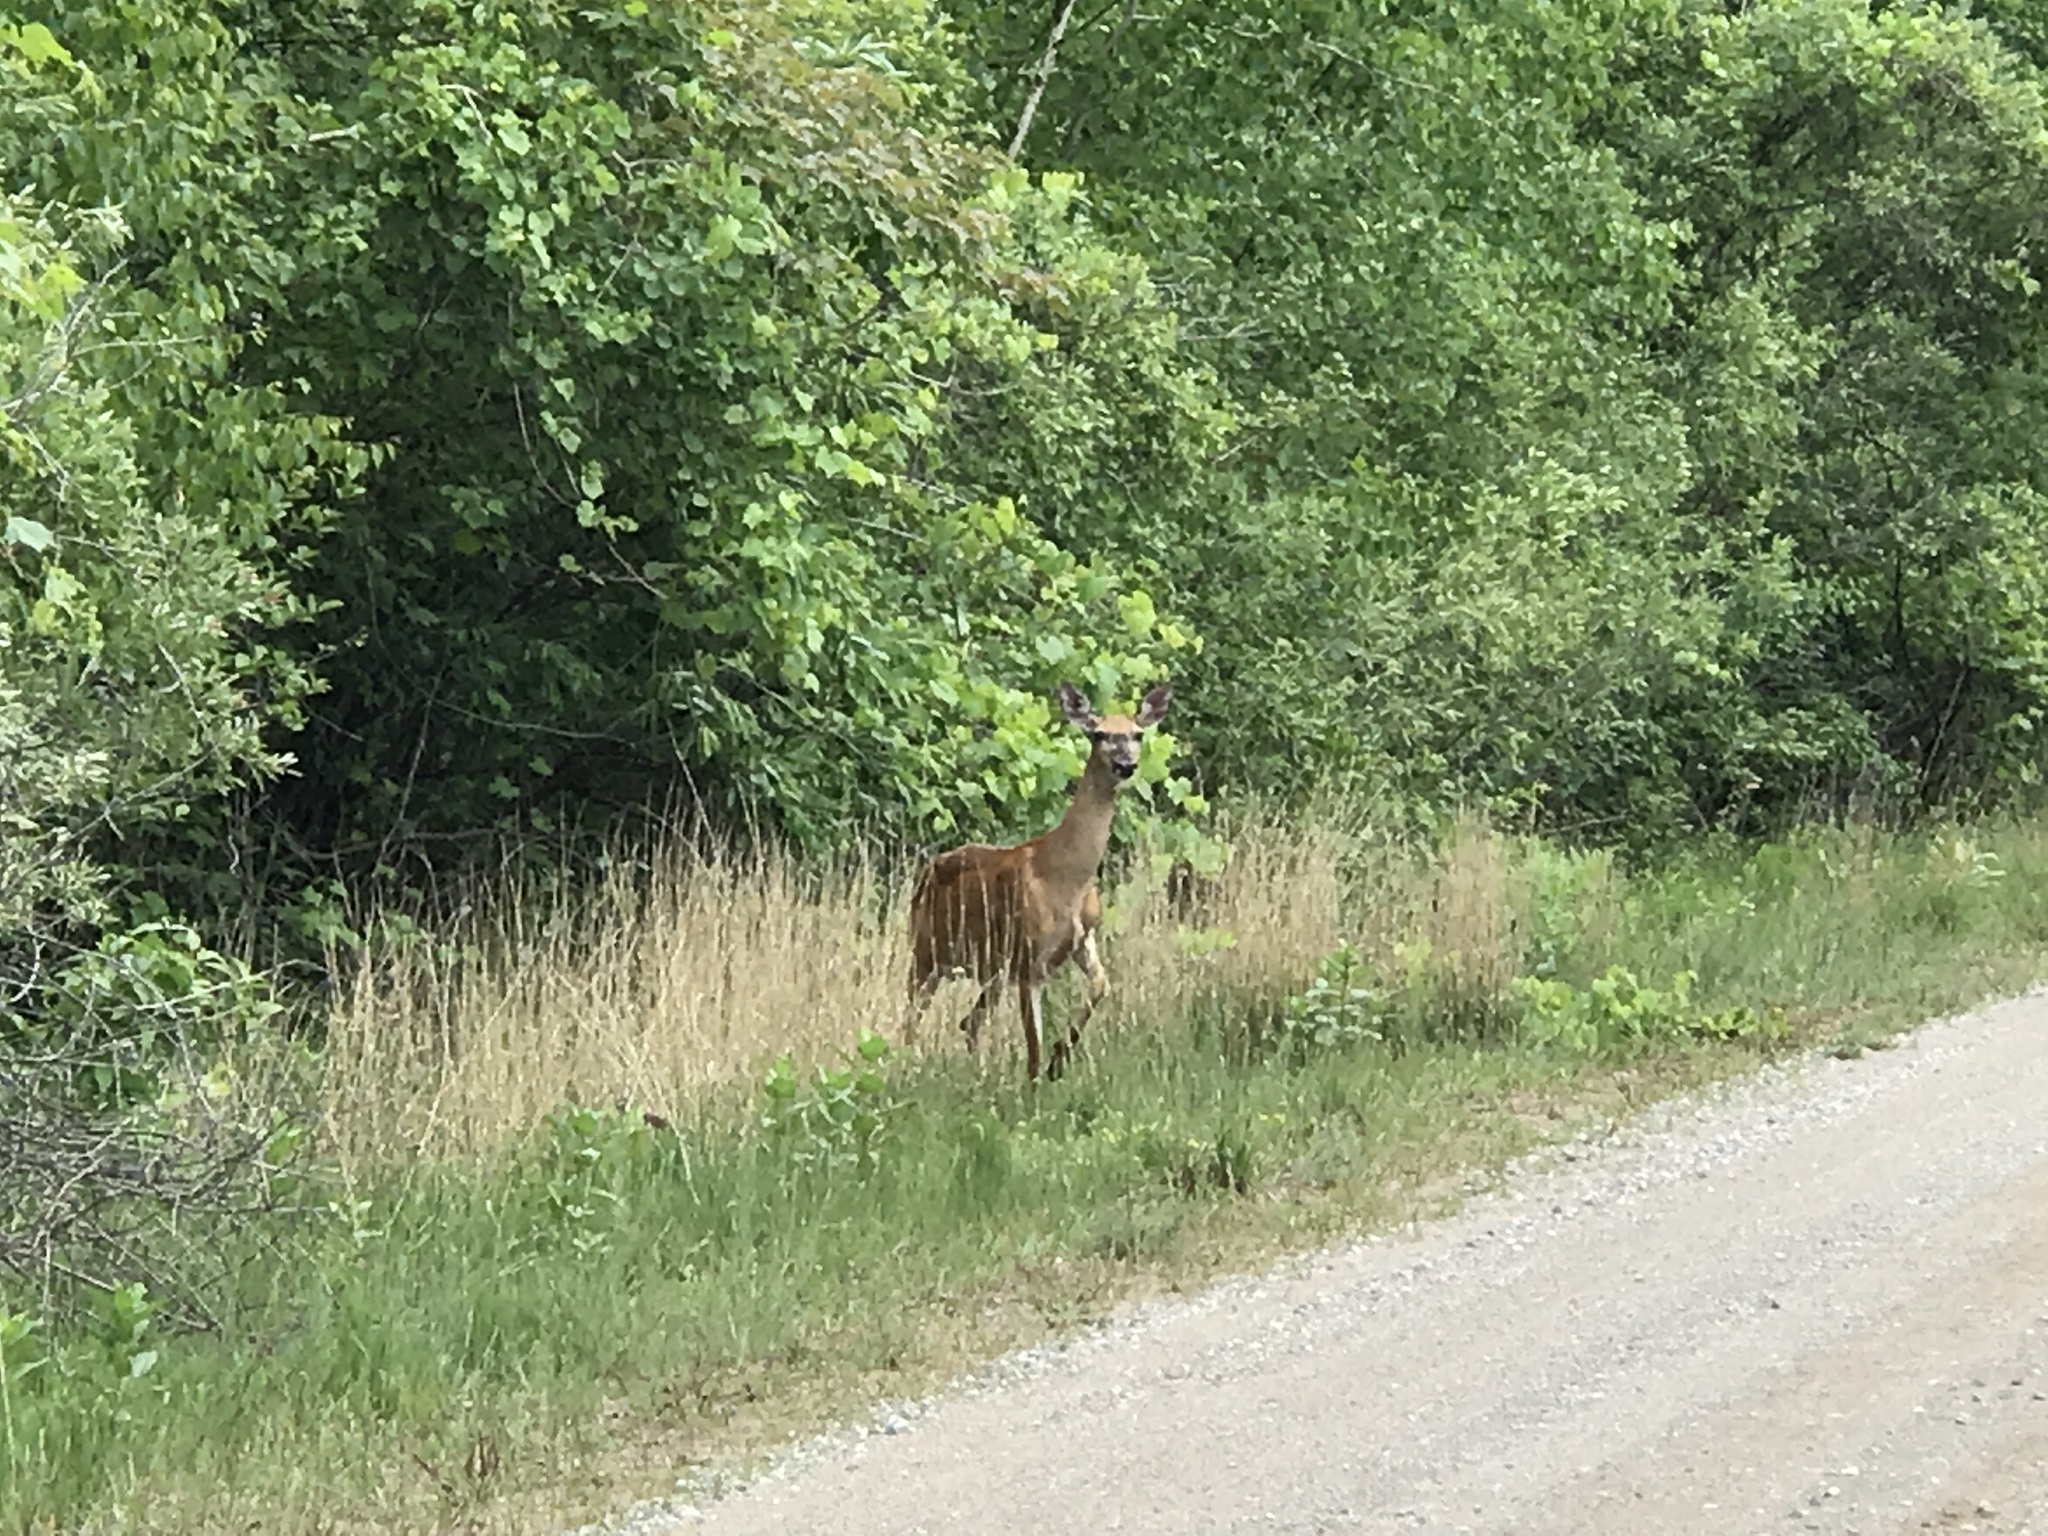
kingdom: Animalia
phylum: Chordata
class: Mammalia
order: Artiodactyla
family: Cervidae
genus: Odocoileus
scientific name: Odocoileus virginianus
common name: White-tailed deer
